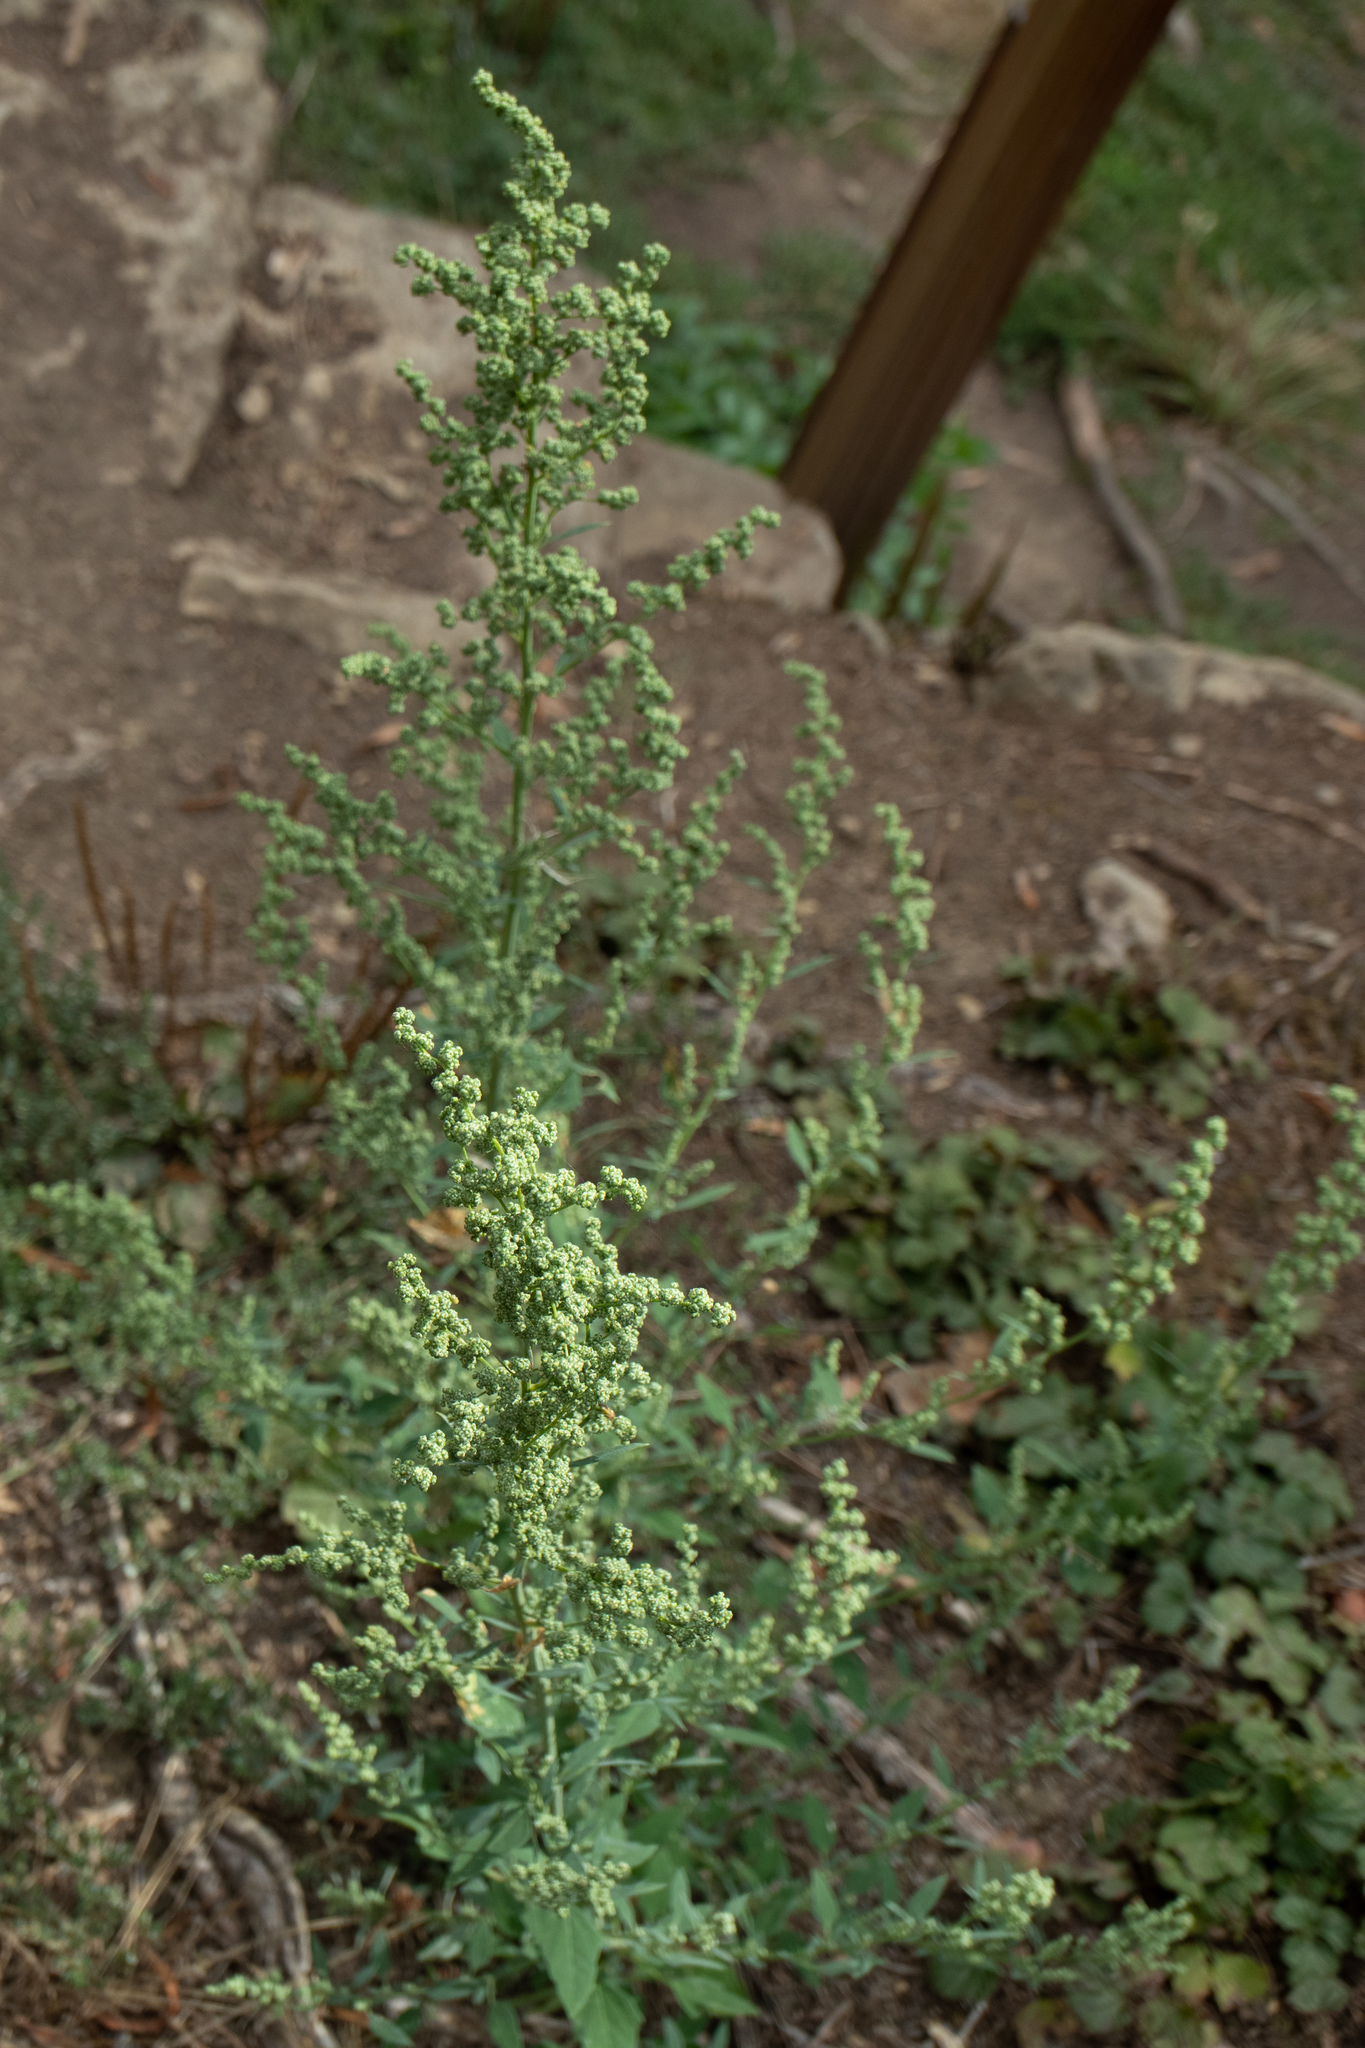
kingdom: Plantae
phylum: Tracheophyta
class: Magnoliopsida
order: Caryophyllales
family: Amaranthaceae
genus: Chenopodium
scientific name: Chenopodium album
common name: Fat-hen
